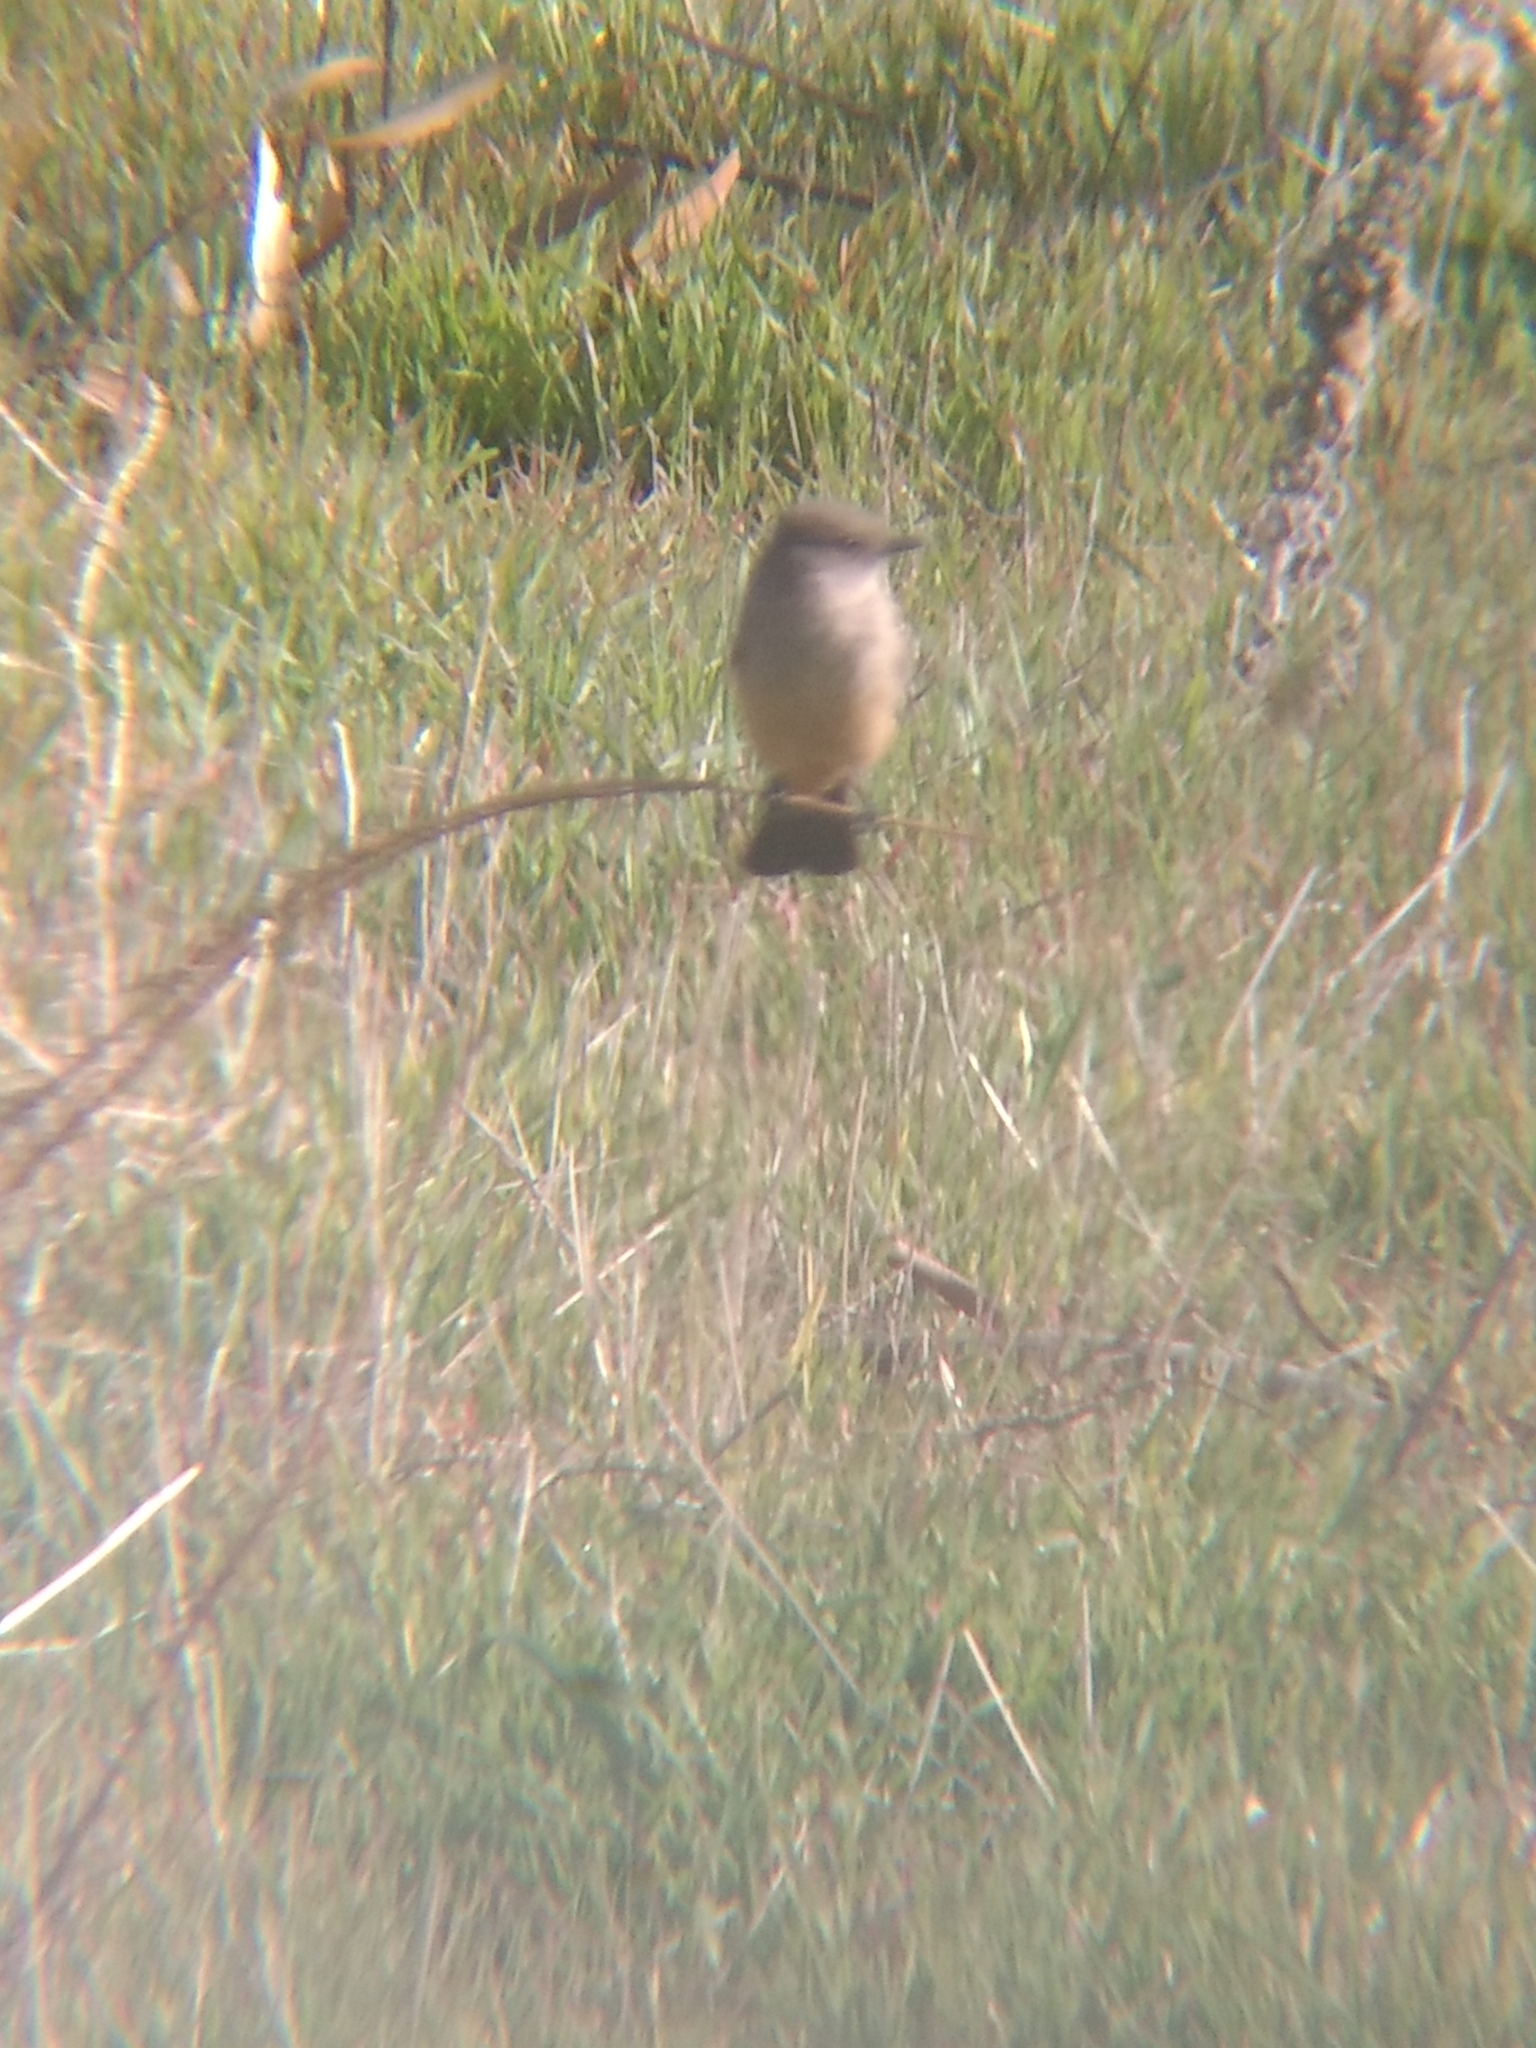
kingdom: Animalia
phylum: Chordata
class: Aves
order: Passeriformes
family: Tyrannidae
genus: Sayornis
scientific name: Sayornis saya
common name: Say's phoebe
